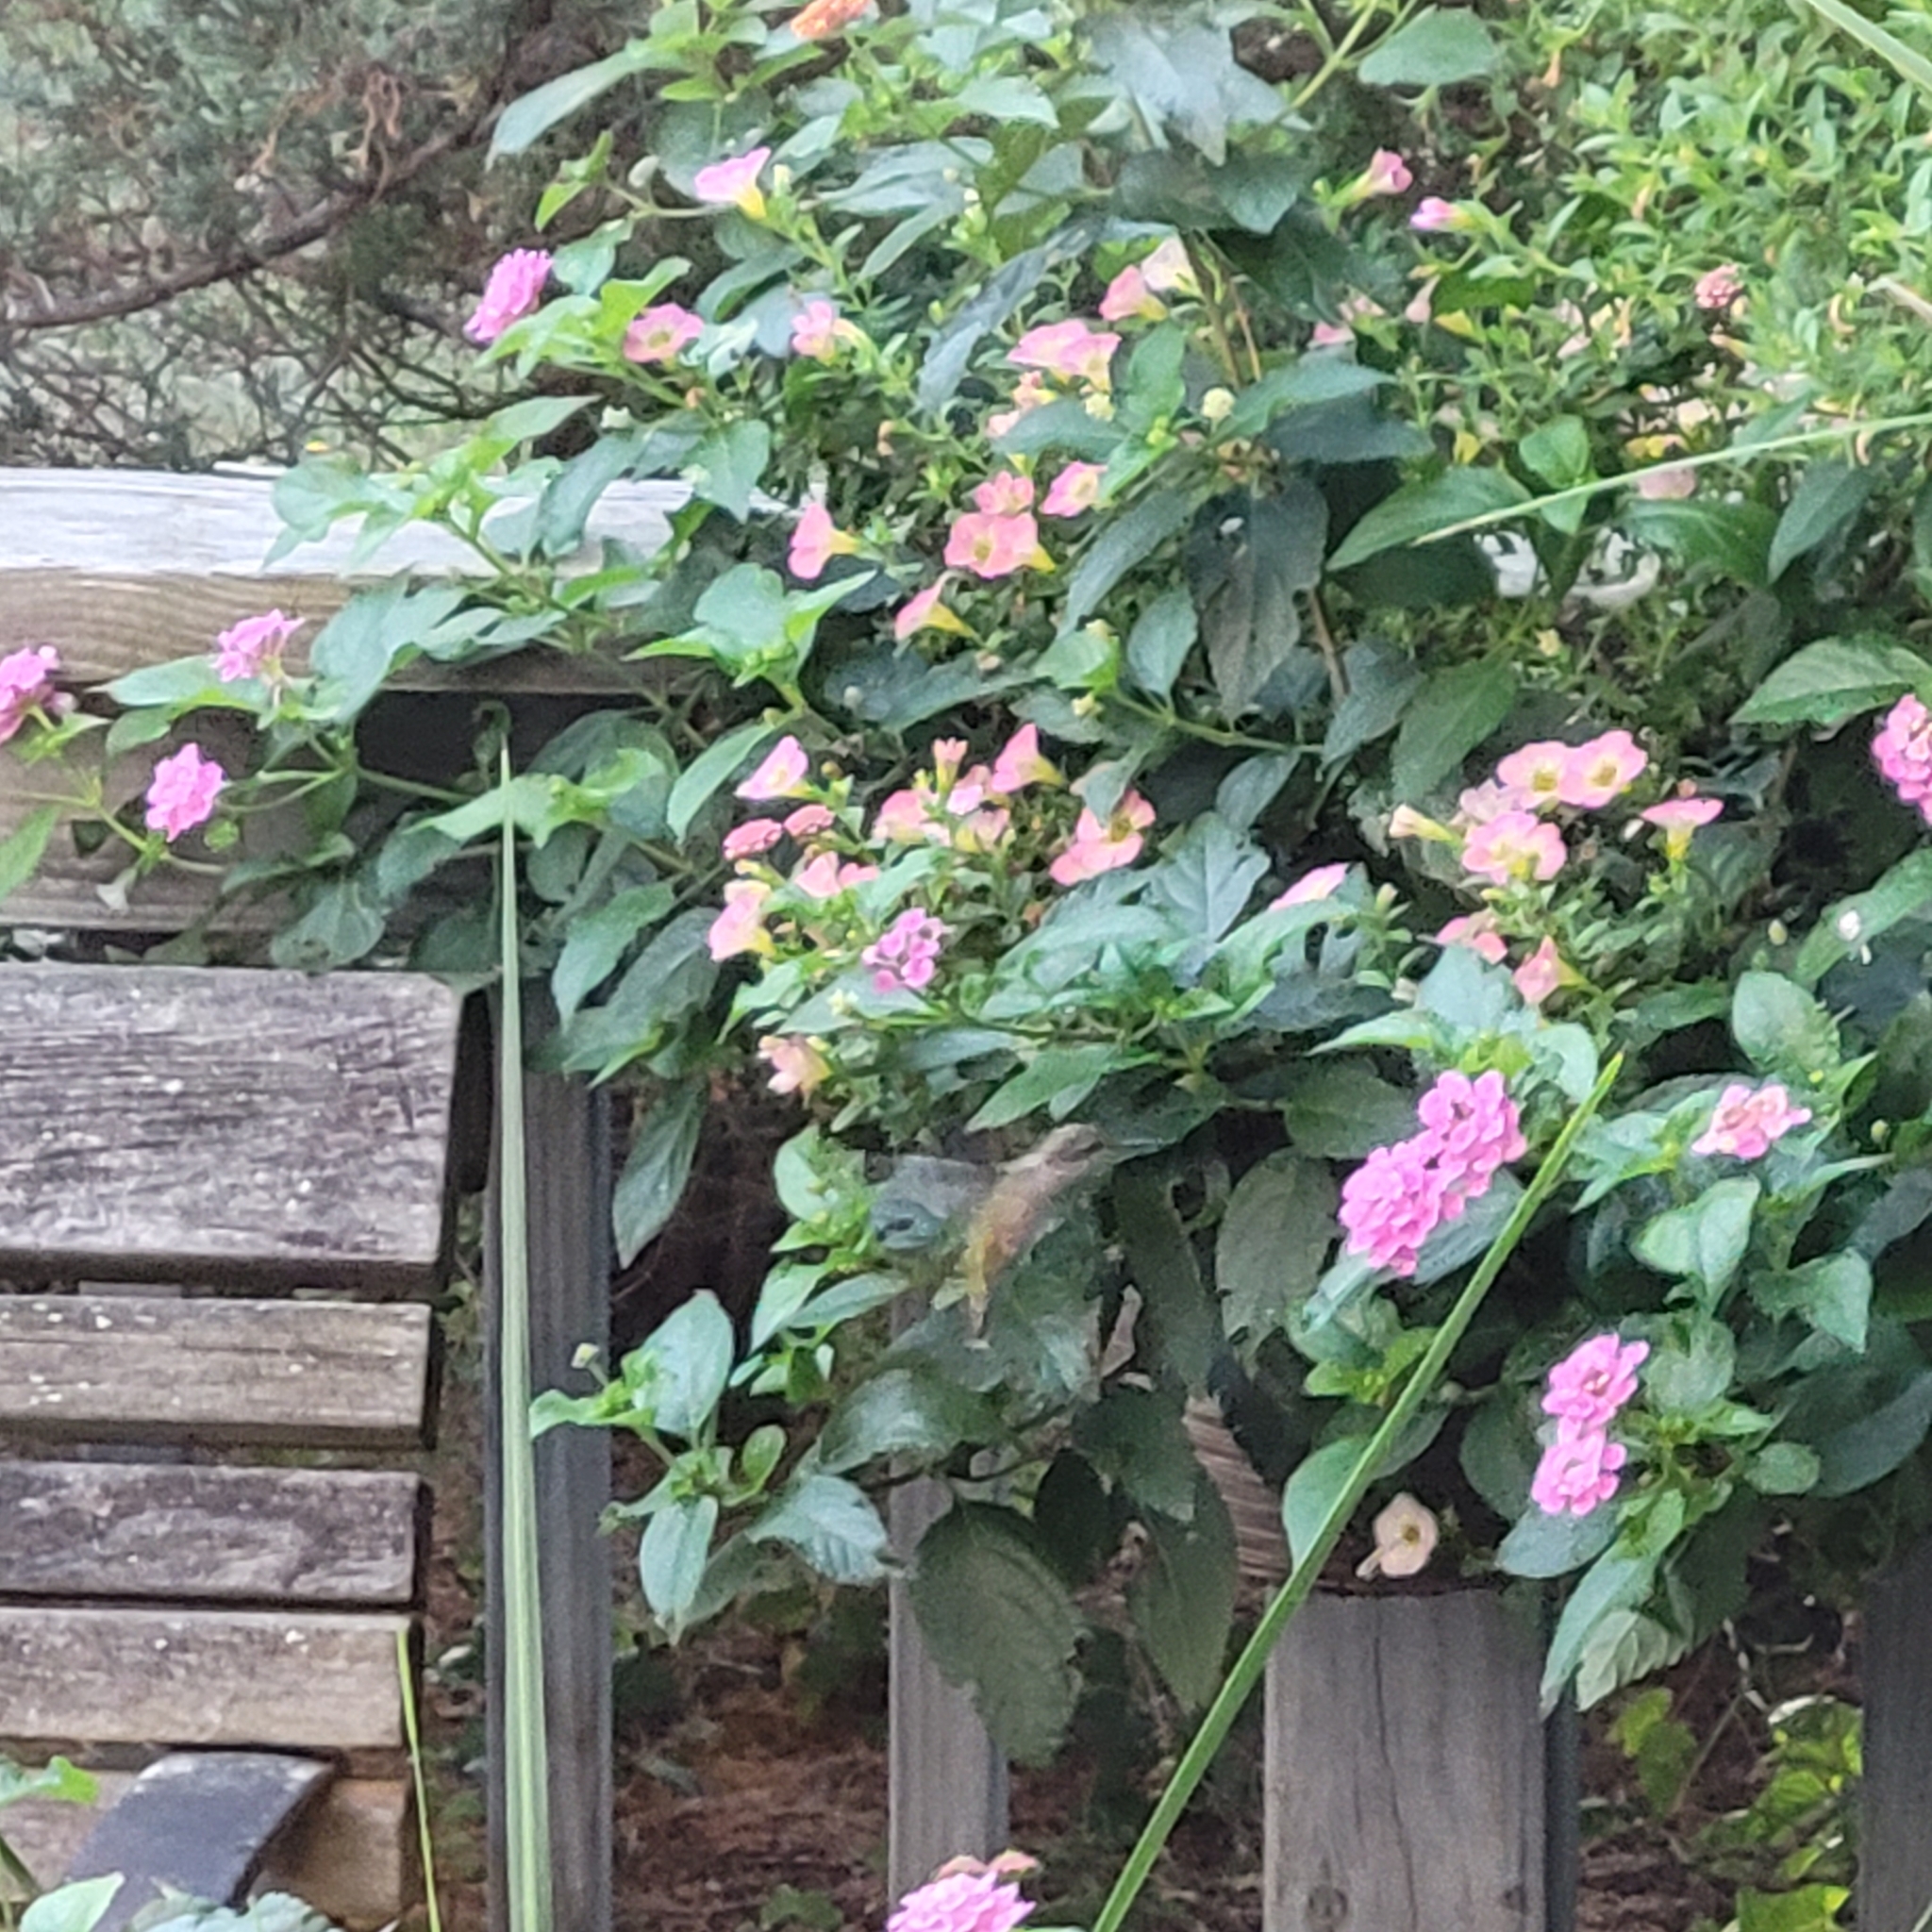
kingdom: Animalia
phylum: Chordata
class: Aves
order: Apodiformes
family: Trochilidae
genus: Archilochus
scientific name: Archilochus colubris
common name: Ruby-throated hummingbird
